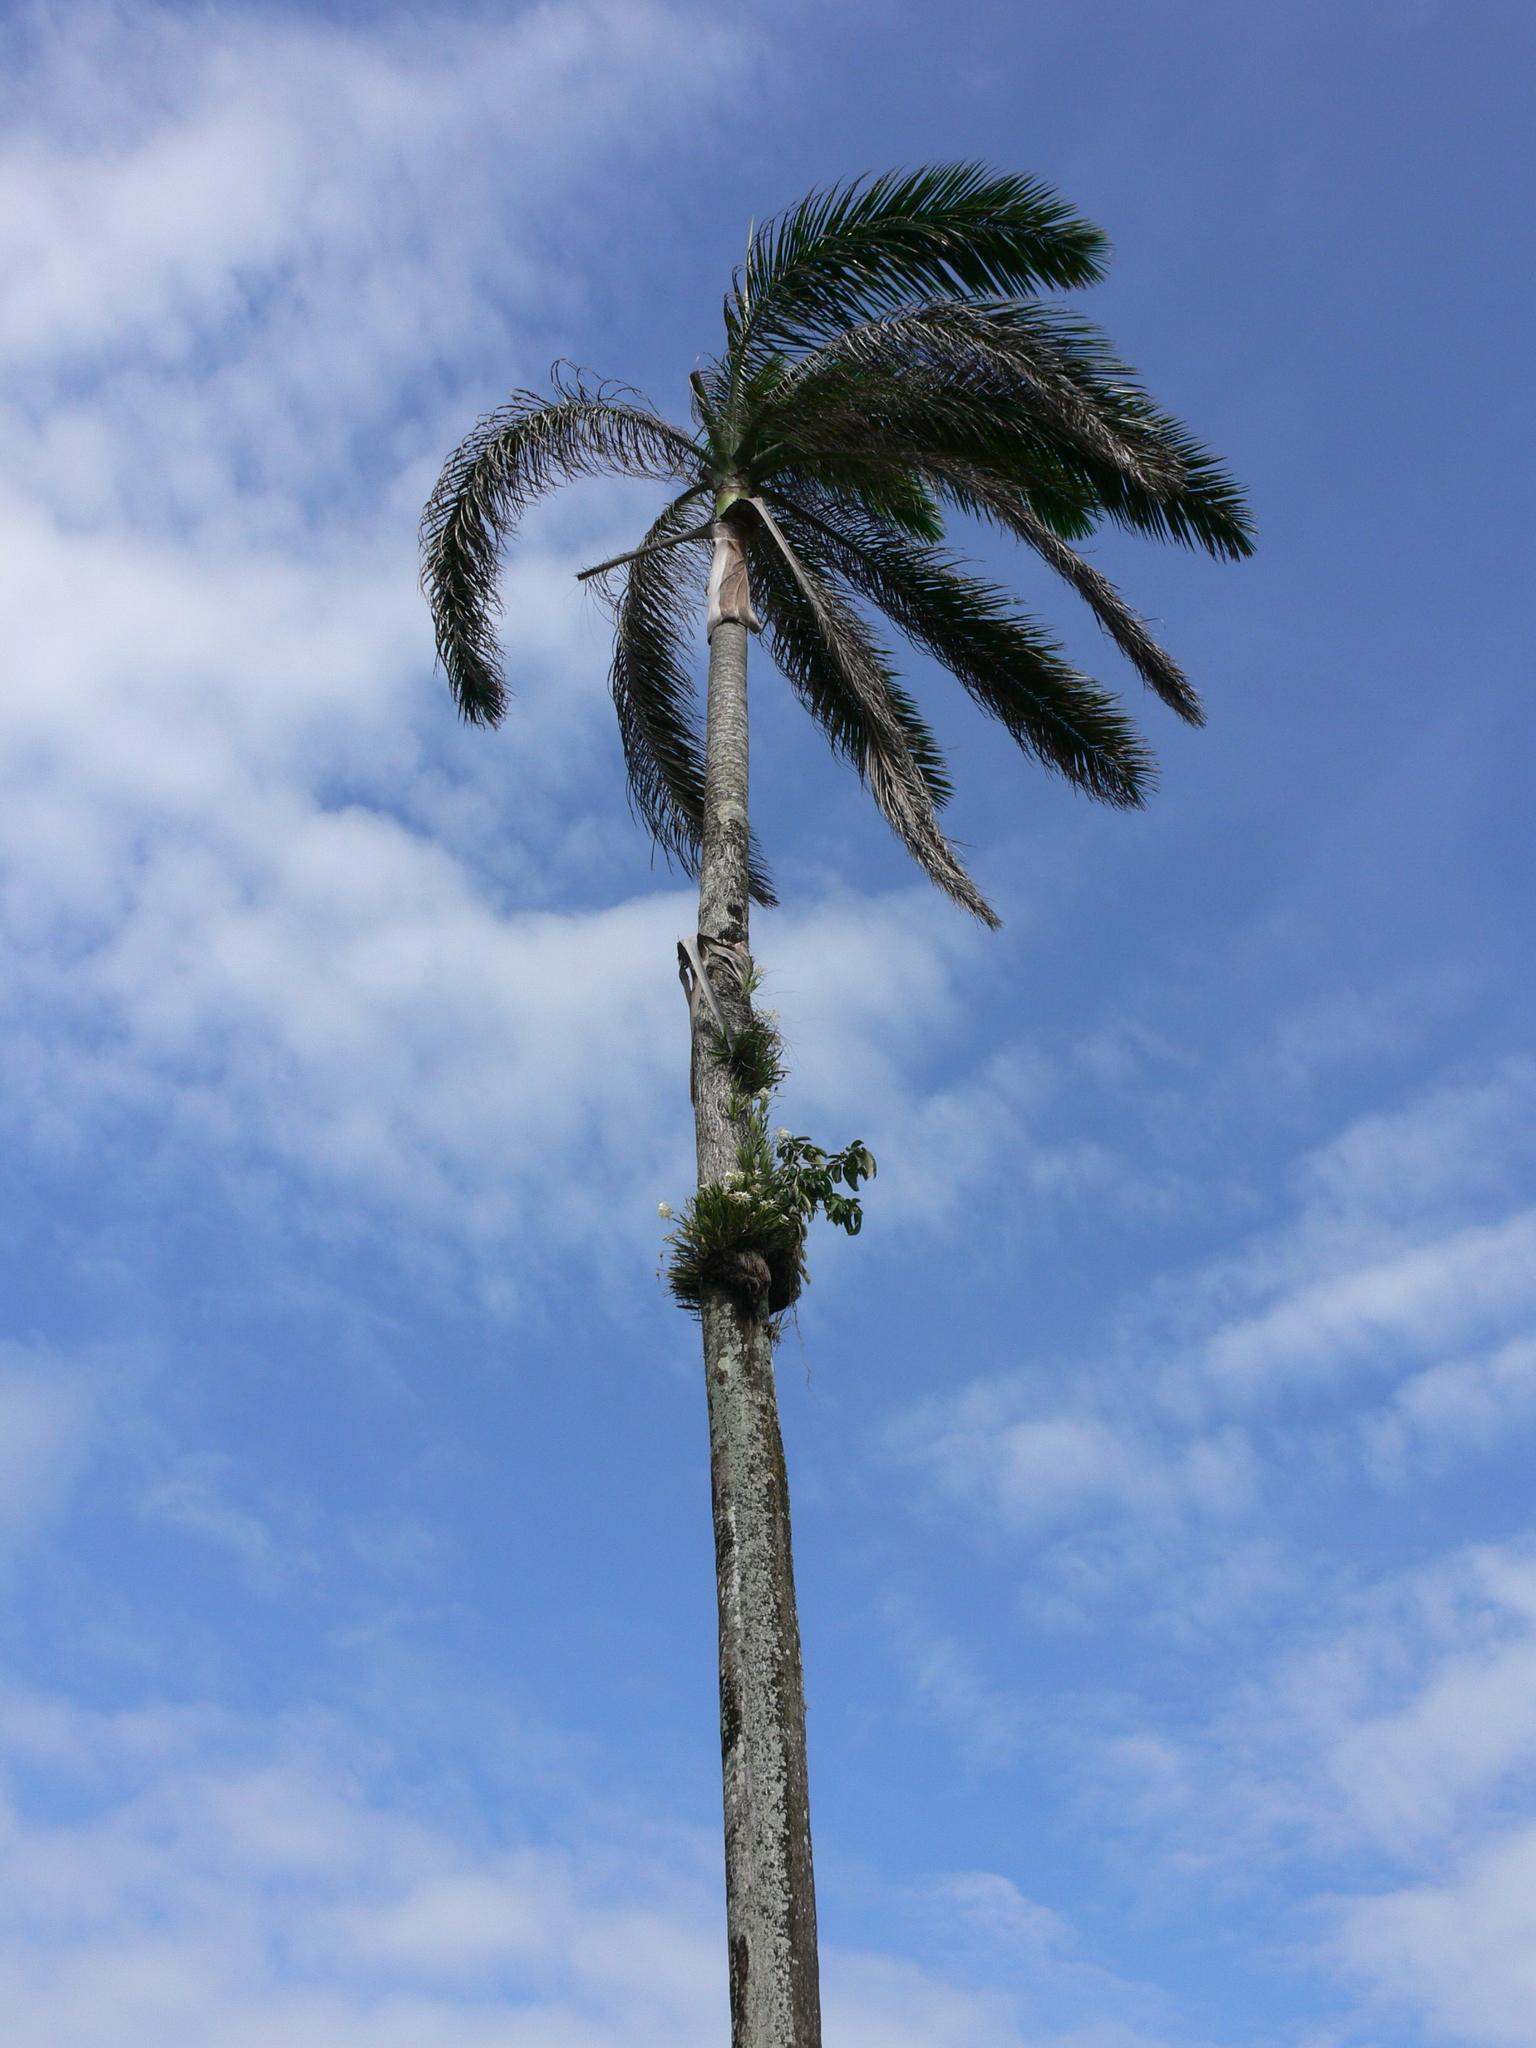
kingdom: Plantae
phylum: Tracheophyta
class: Liliopsida
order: Asparagales
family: Orchidaceae
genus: Brassavola
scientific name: Brassavola nodosa
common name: Lady of the night
